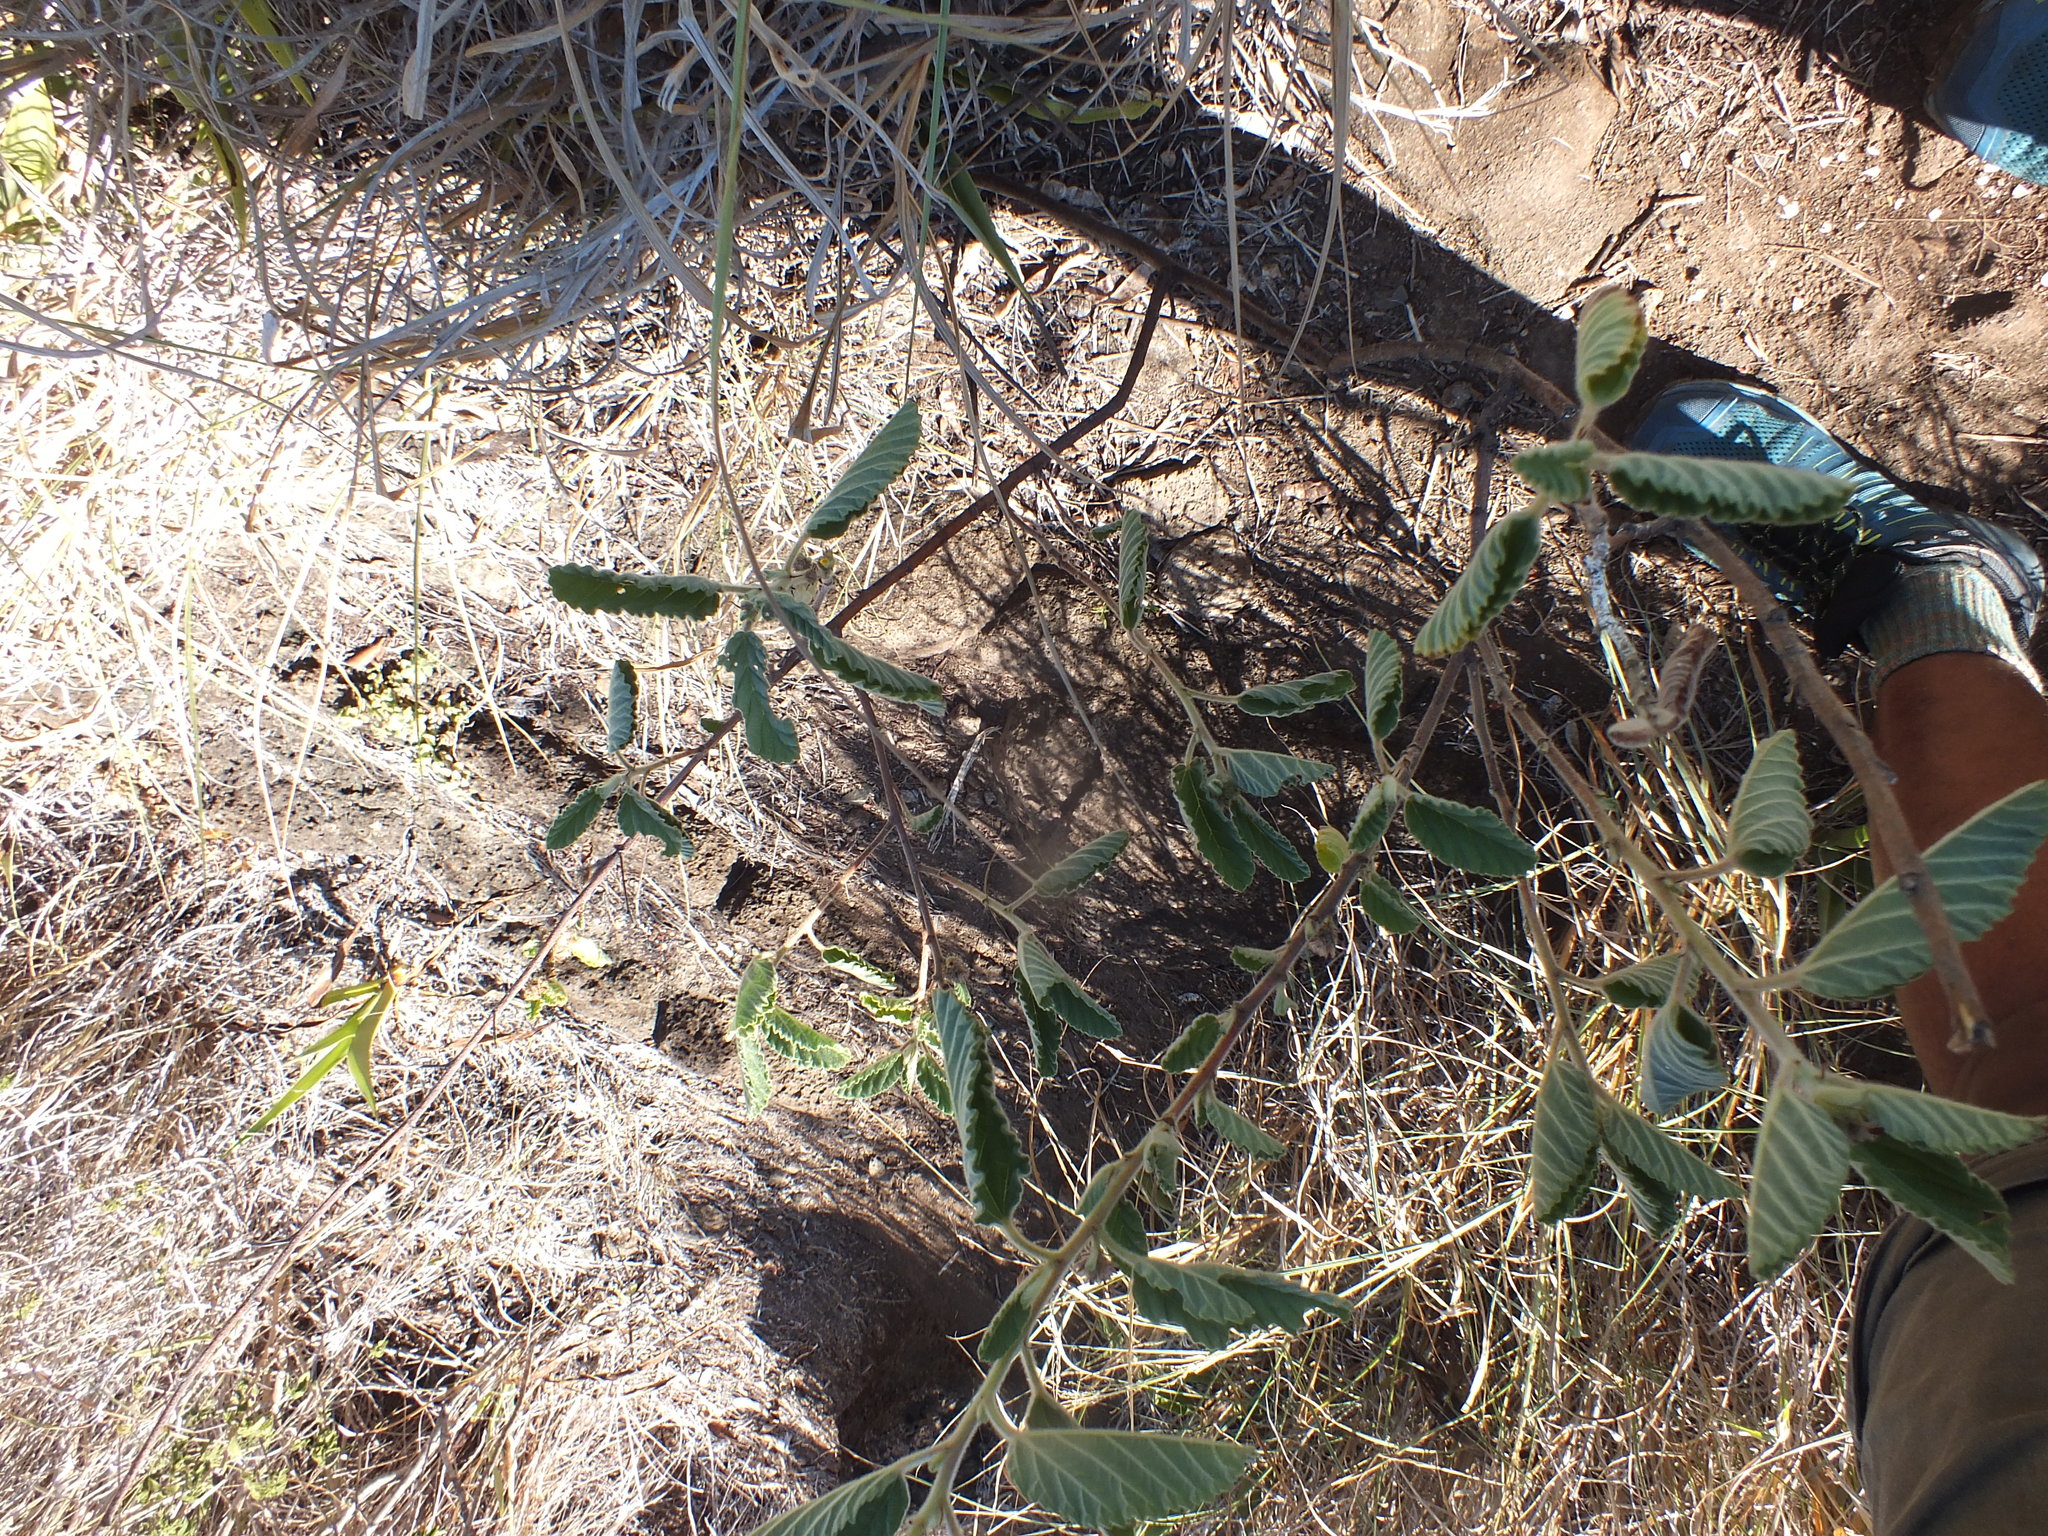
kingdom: Plantae
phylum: Tracheophyta
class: Magnoliopsida
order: Malvales
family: Malvaceae
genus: Waltheria
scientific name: Waltheria indica
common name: Leather-coat
